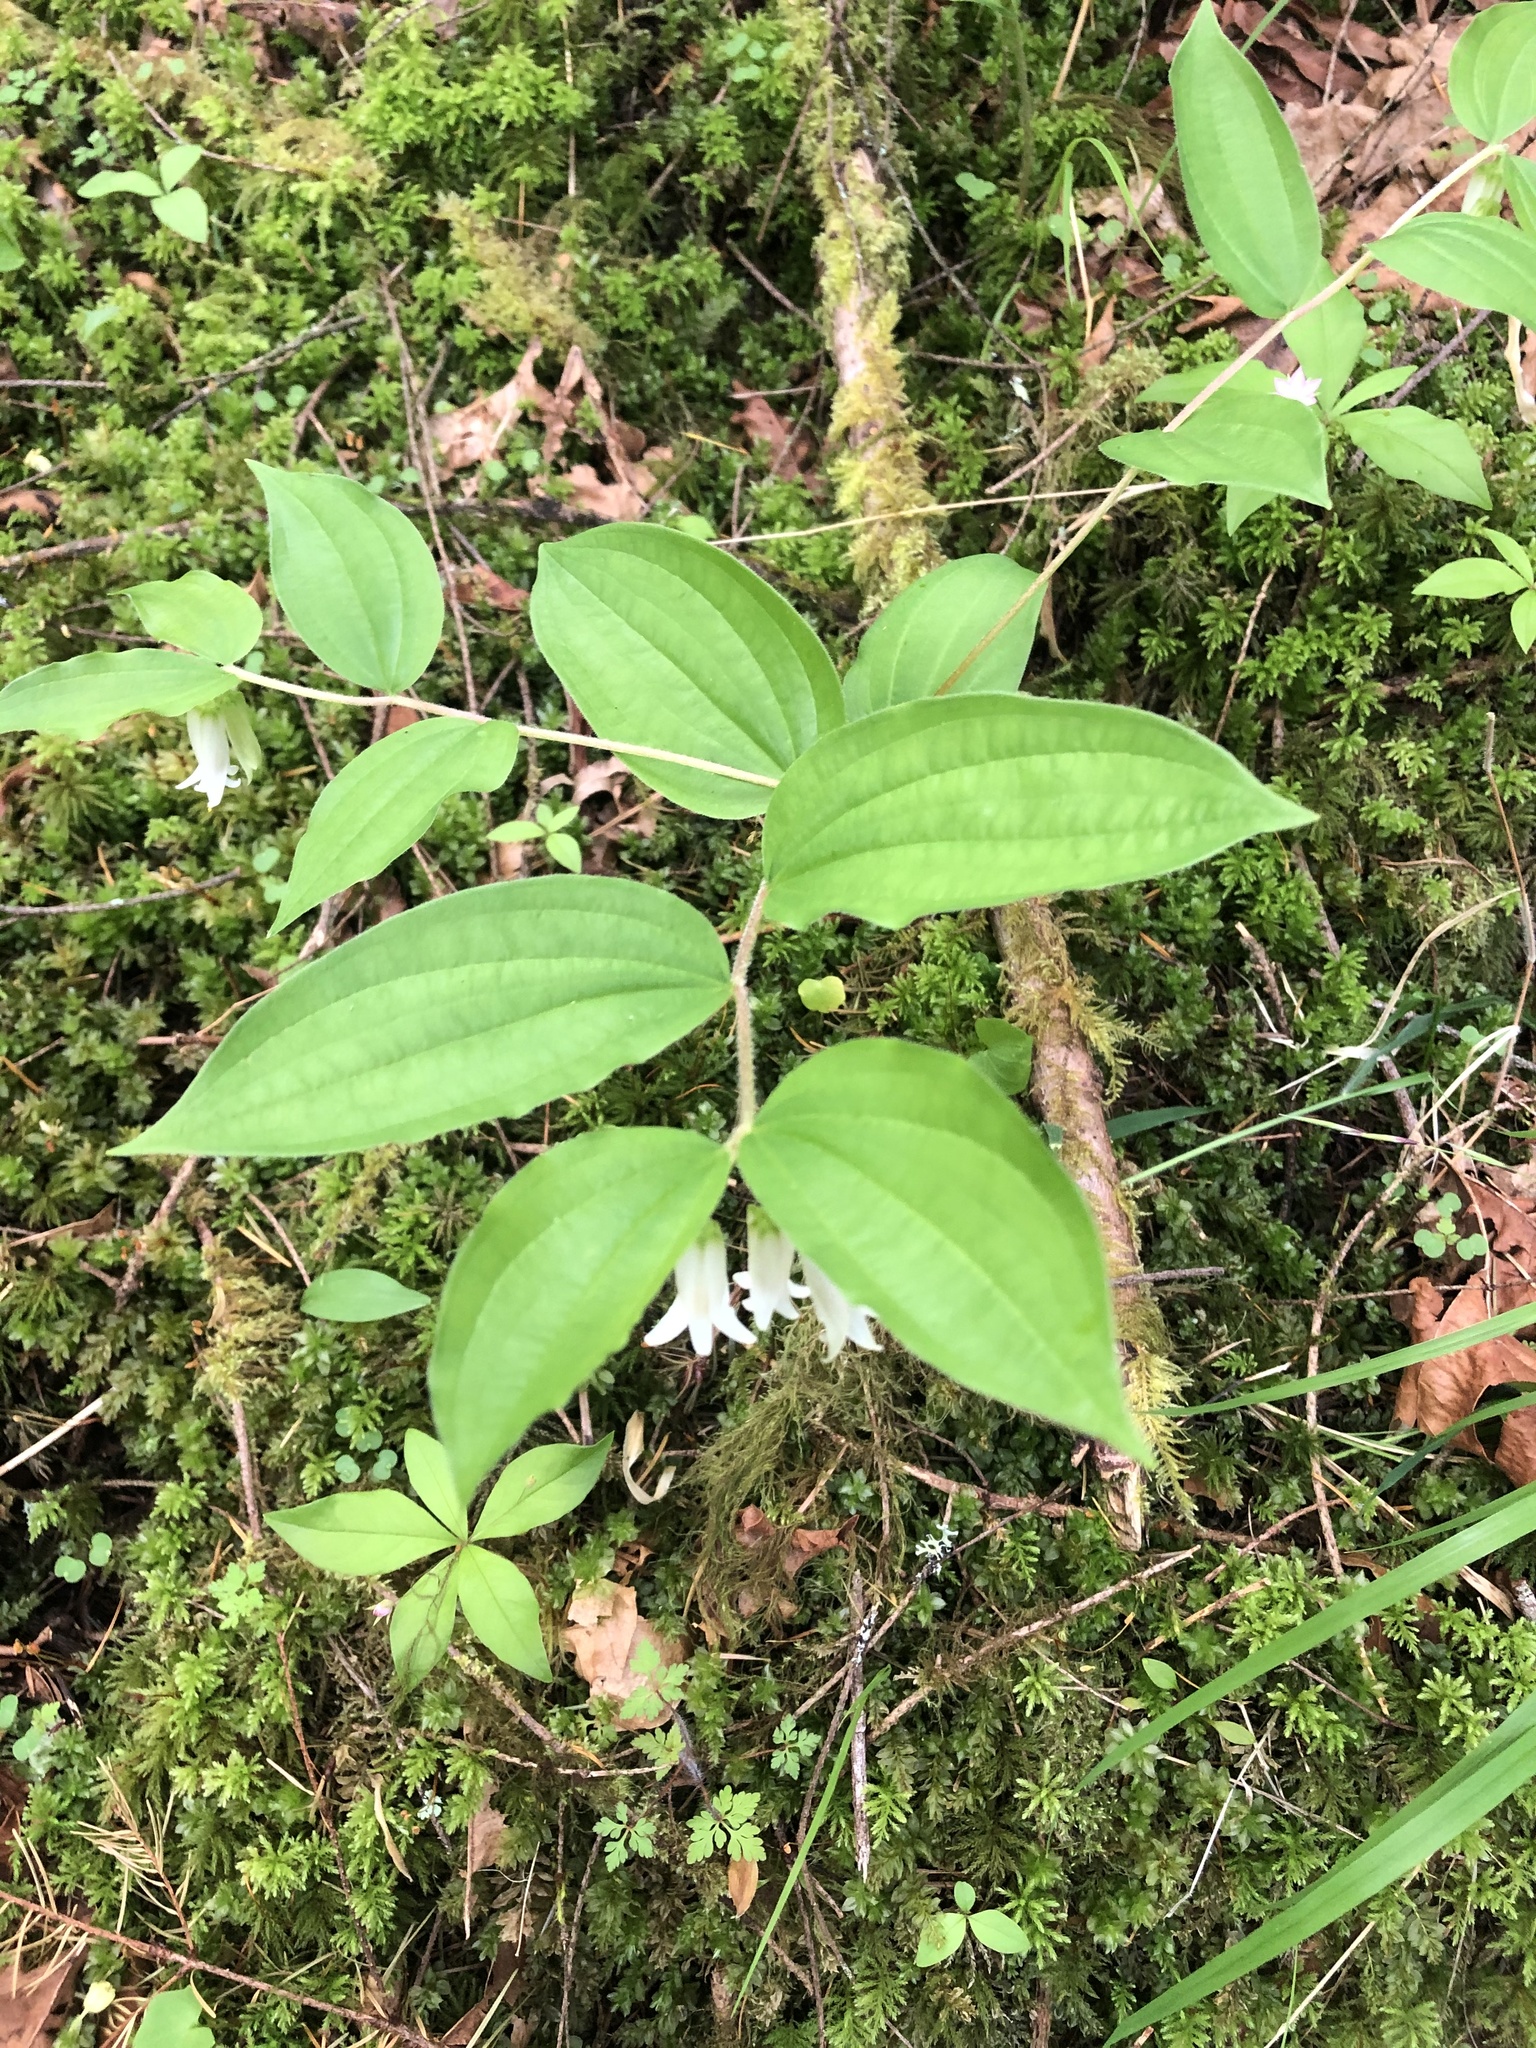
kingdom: Plantae
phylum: Tracheophyta
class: Liliopsida
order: Liliales
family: Liliaceae
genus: Prosartes
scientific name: Prosartes smithii
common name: Fairy-lantern
